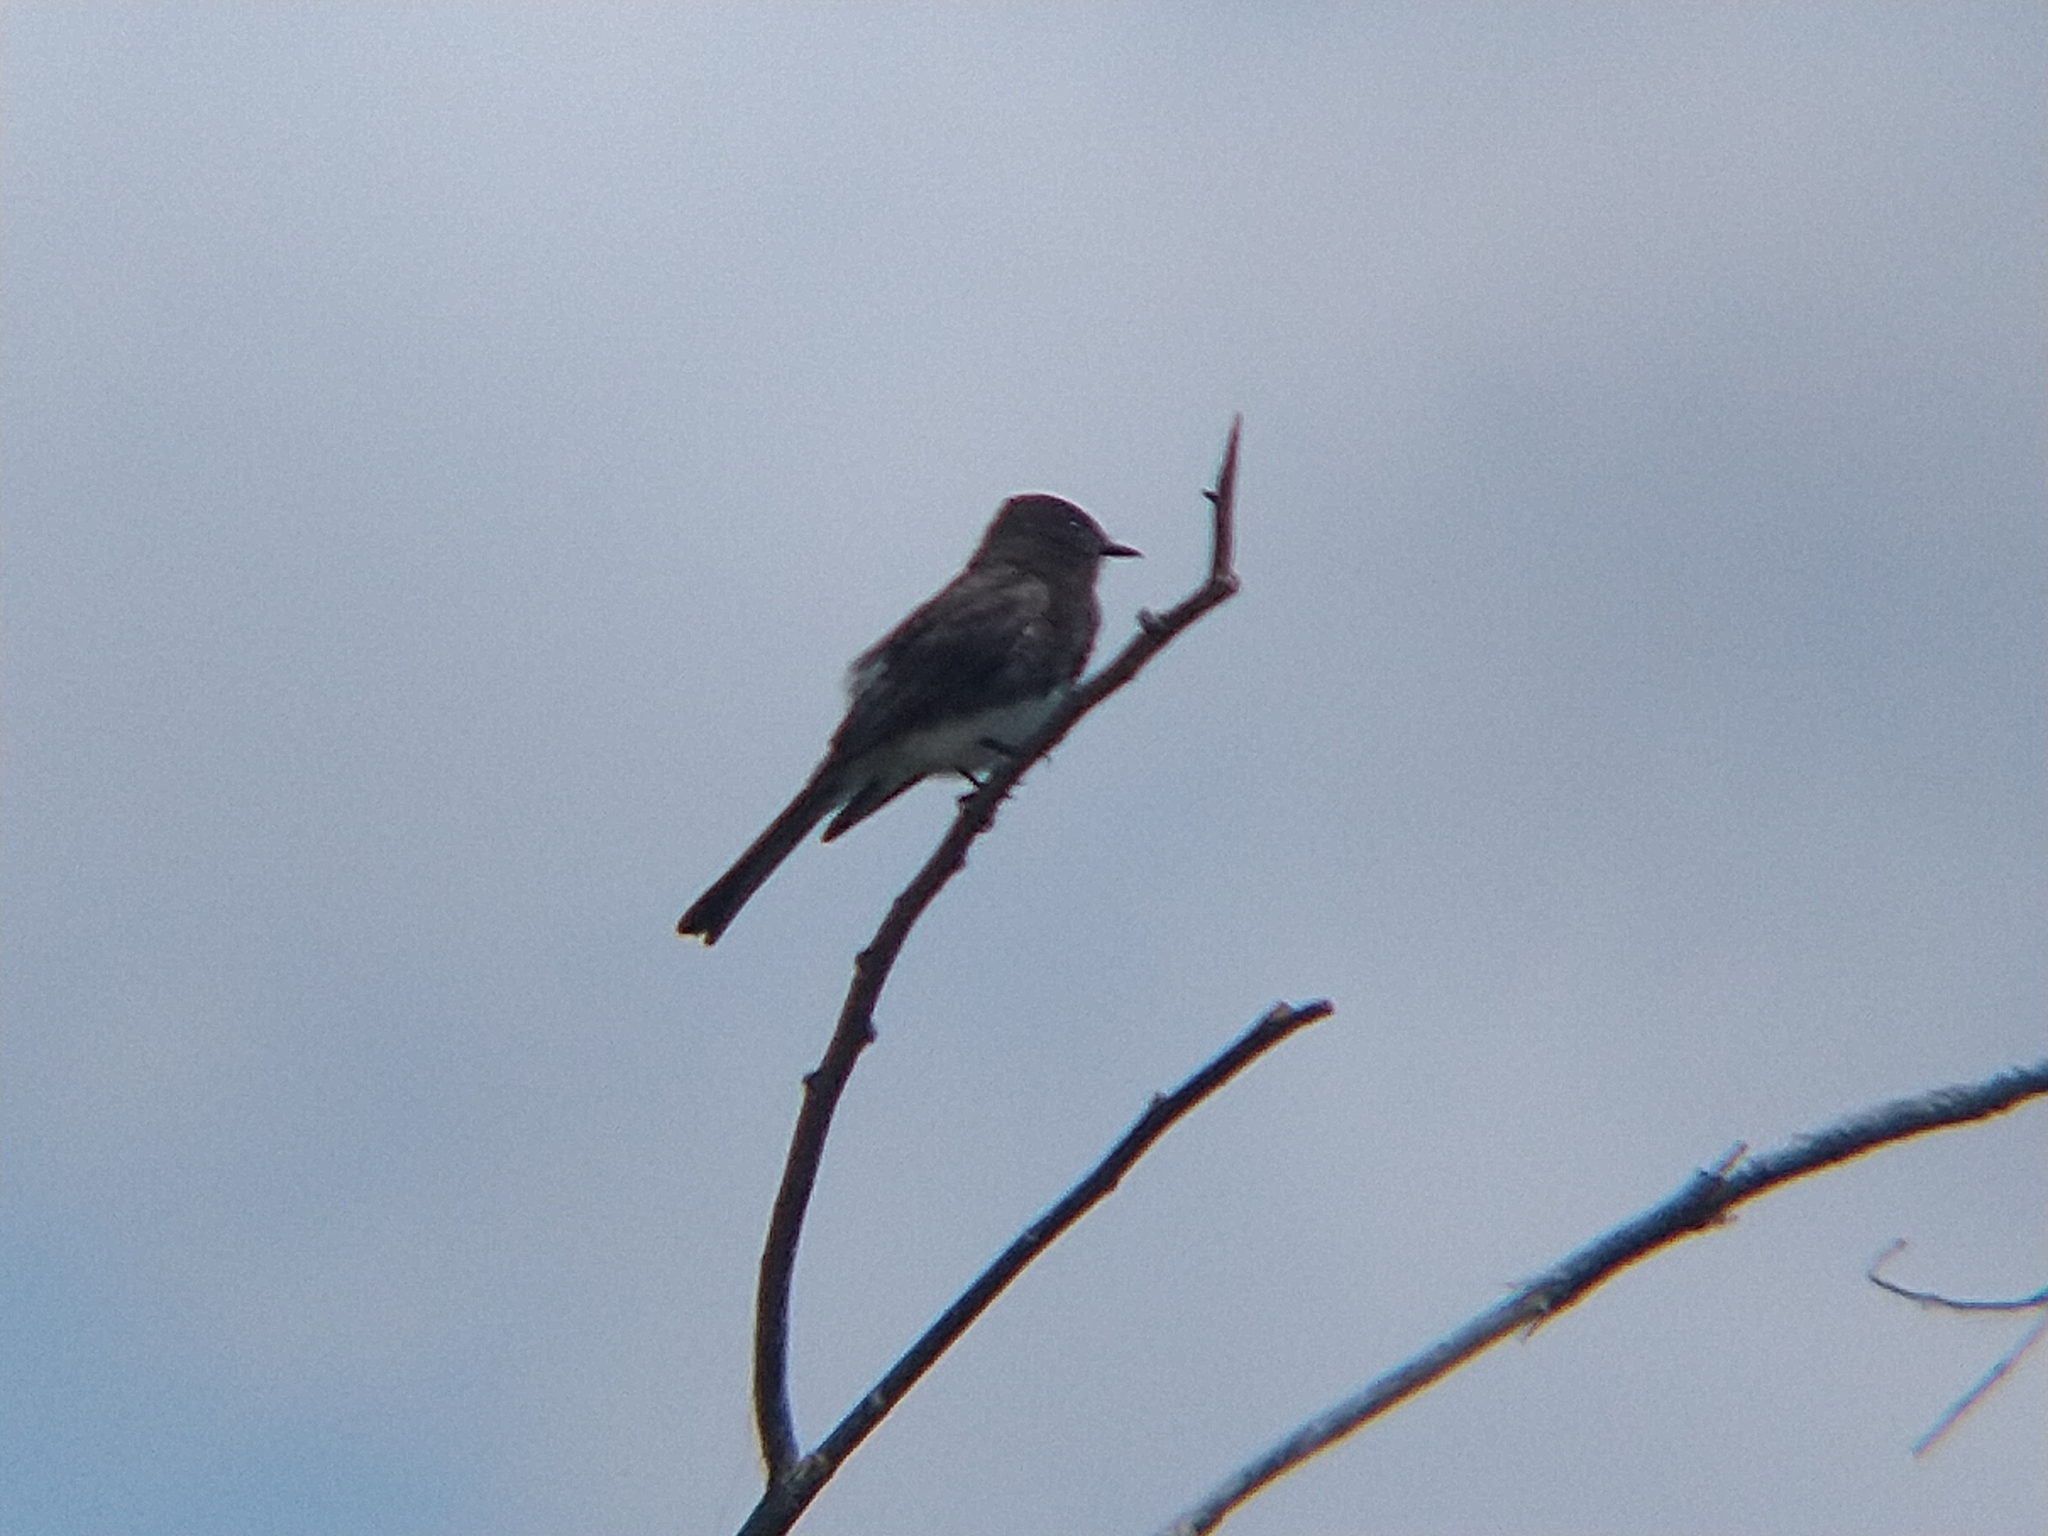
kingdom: Animalia
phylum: Chordata
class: Aves
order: Passeriformes
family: Tyrannidae
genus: Sayornis
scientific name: Sayornis nigricans
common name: Black phoebe
